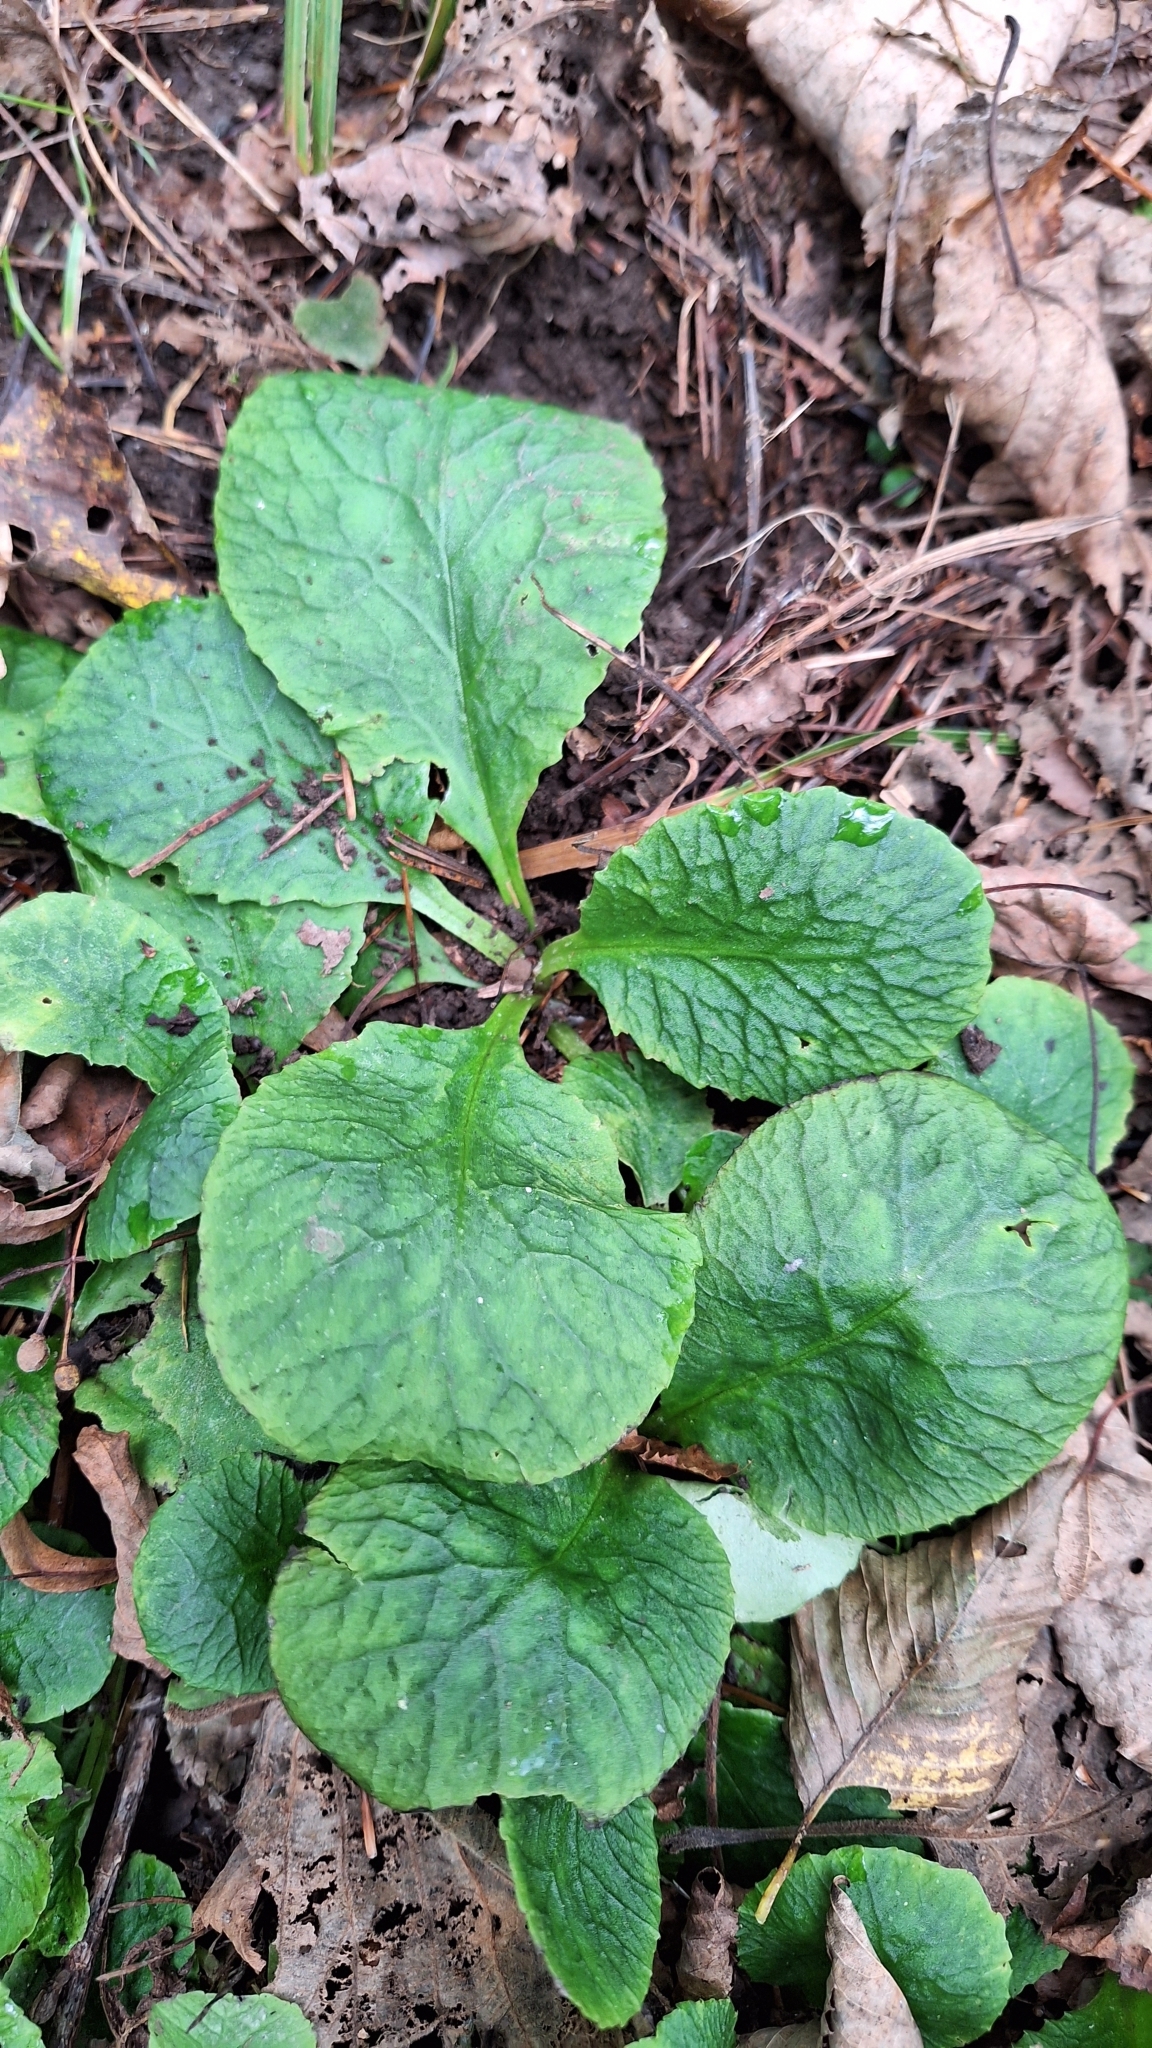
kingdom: Plantae
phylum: Tracheophyta
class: Magnoliopsida
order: Saxifragales
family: Saxifragaceae
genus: Chrysosplenium
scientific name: Chrysosplenium sinicum
